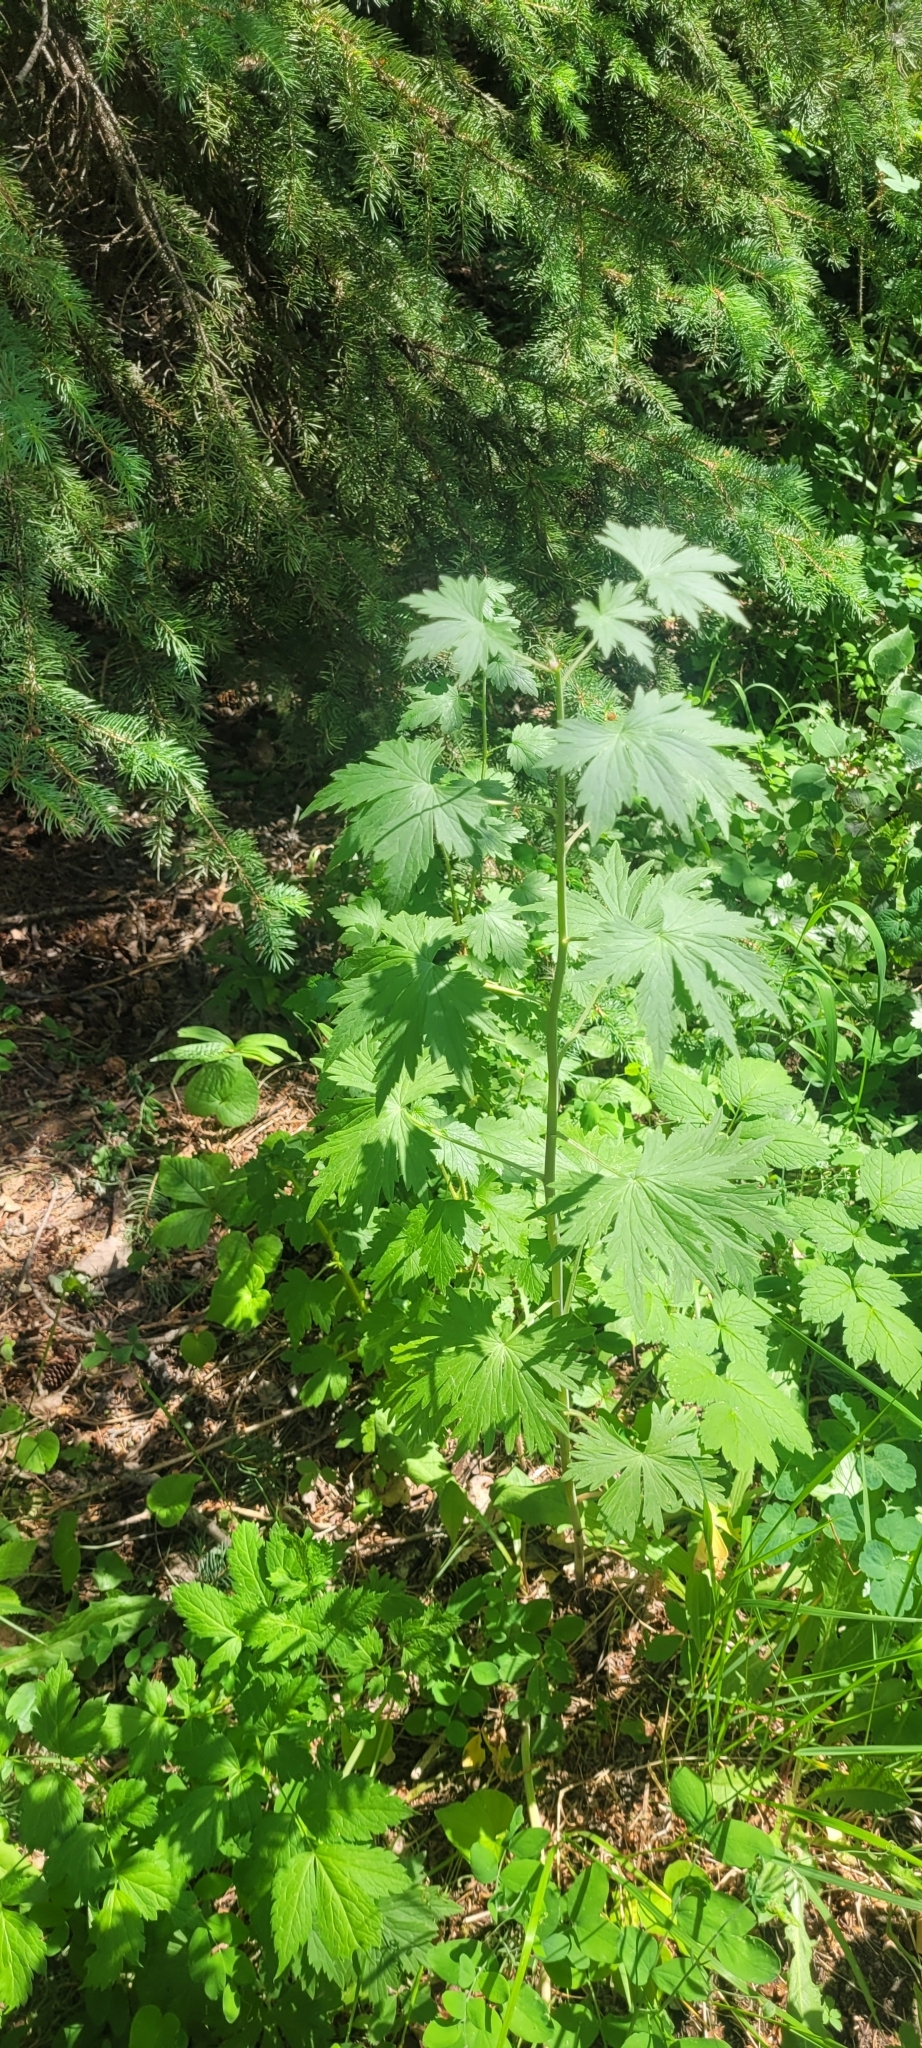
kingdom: Plantae
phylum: Tracheophyta
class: Magnoliopsida
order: Ranunculales
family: Ranunculaceae
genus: Delphinium
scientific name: Delphinium glaucum
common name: Brown's larkspur
